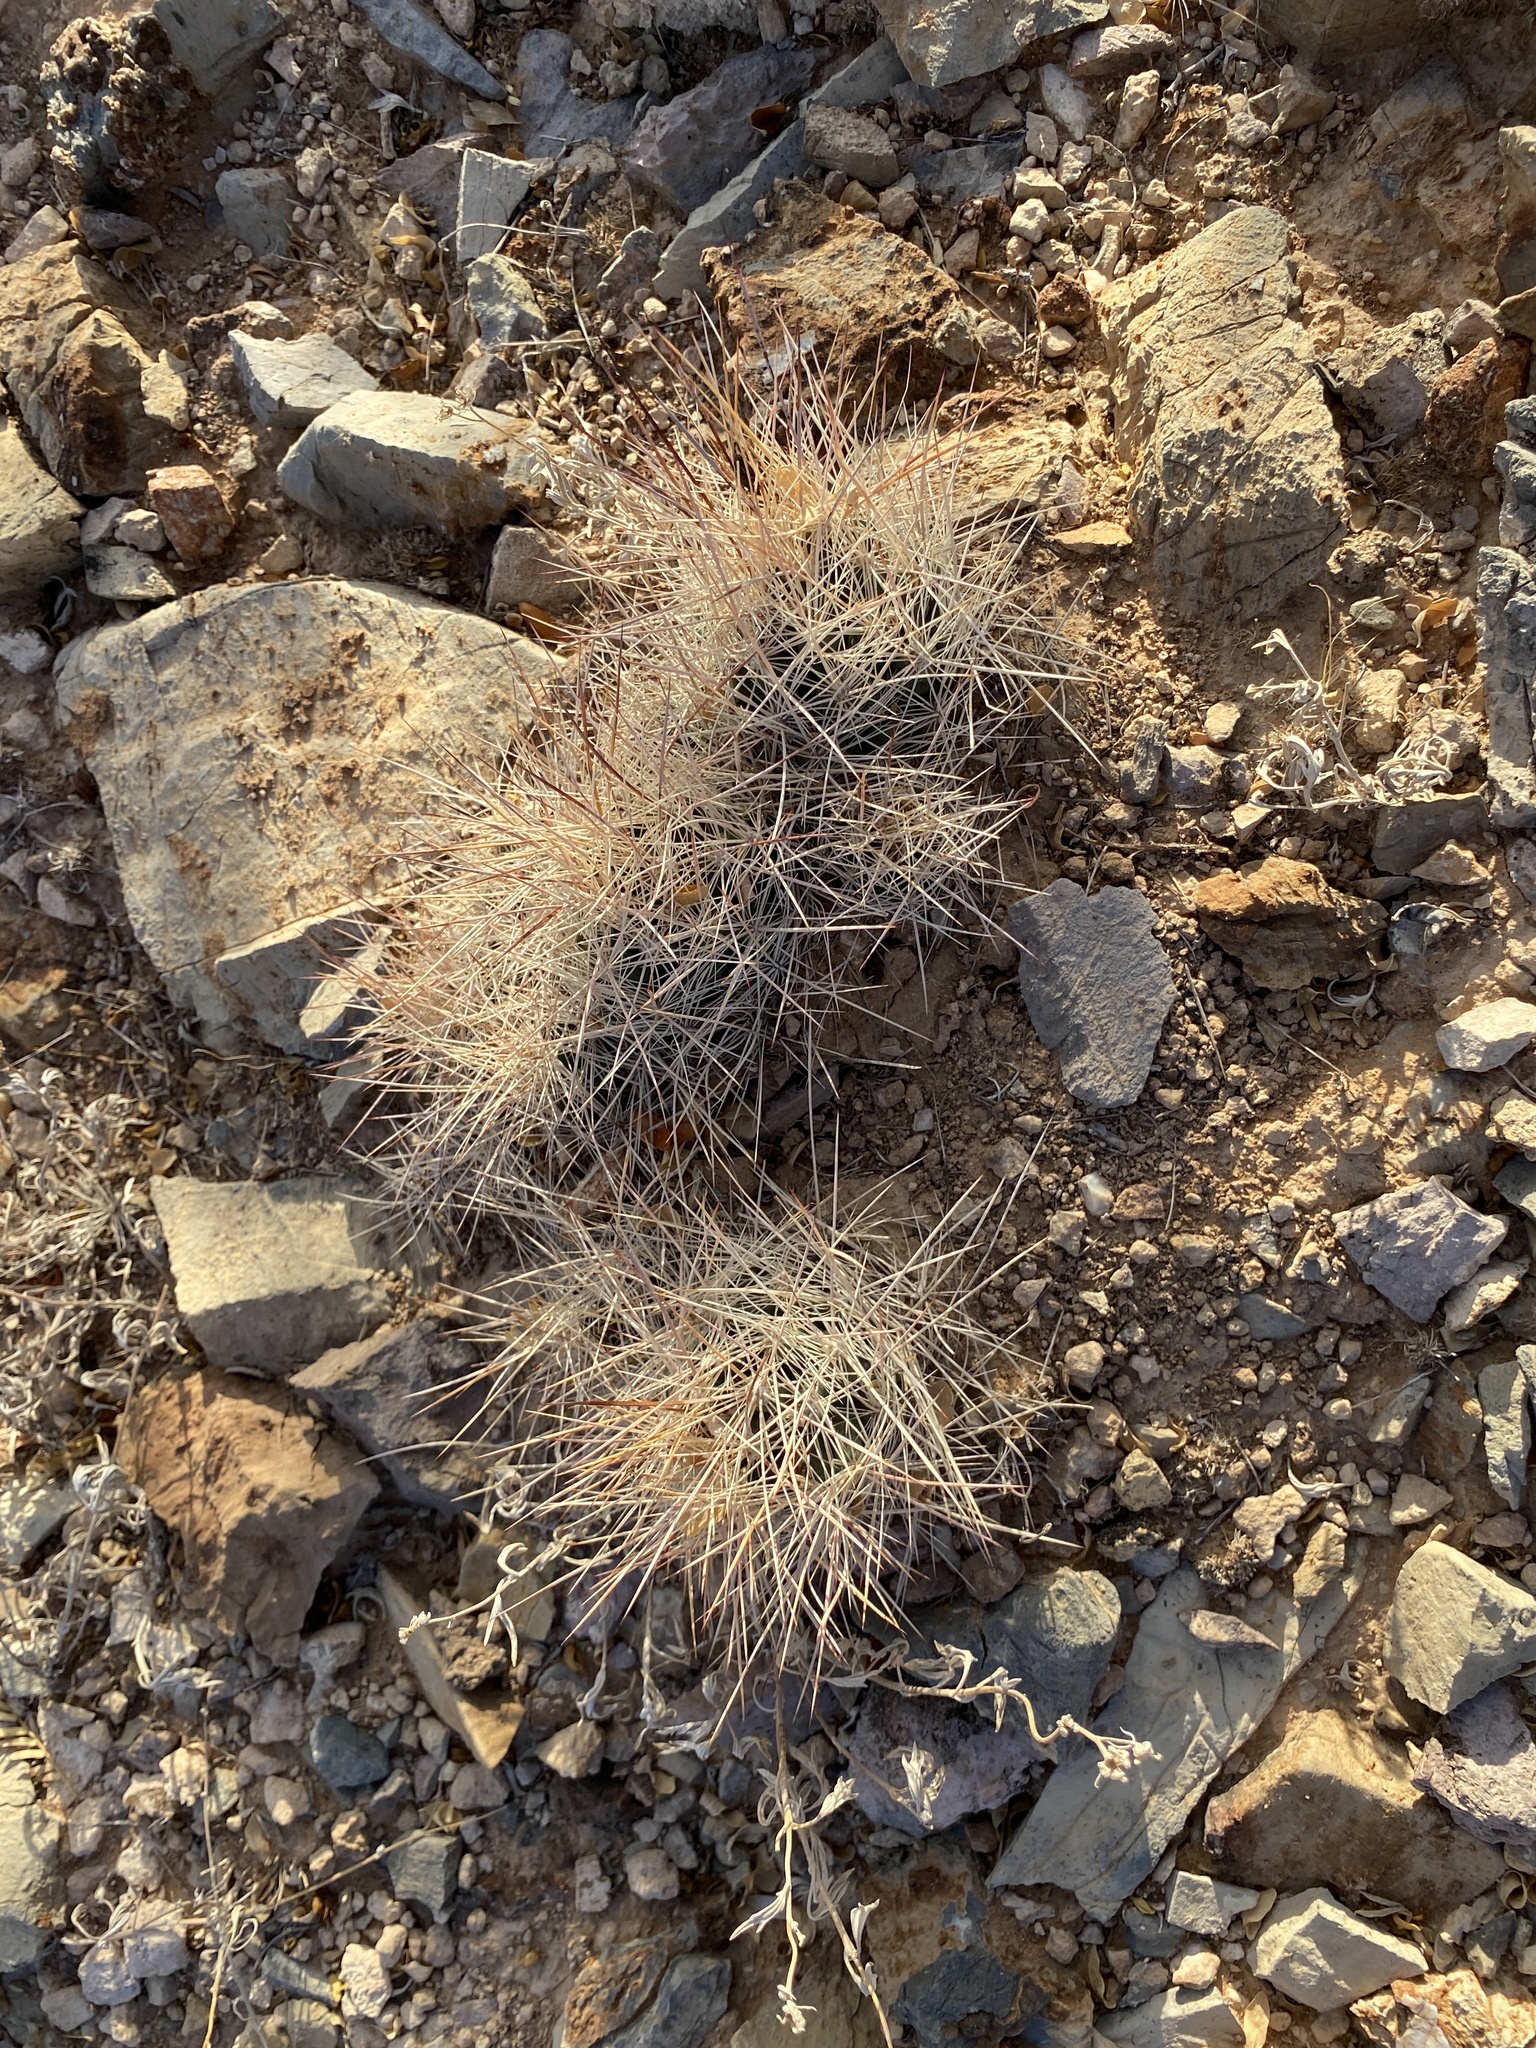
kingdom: Plantae
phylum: Tracheophyta
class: Magnoliopsida
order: Caryophyllales
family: Cactaceae
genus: Coryphantha
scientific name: Coryphantha macromeris
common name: Nipple beehive cactus
